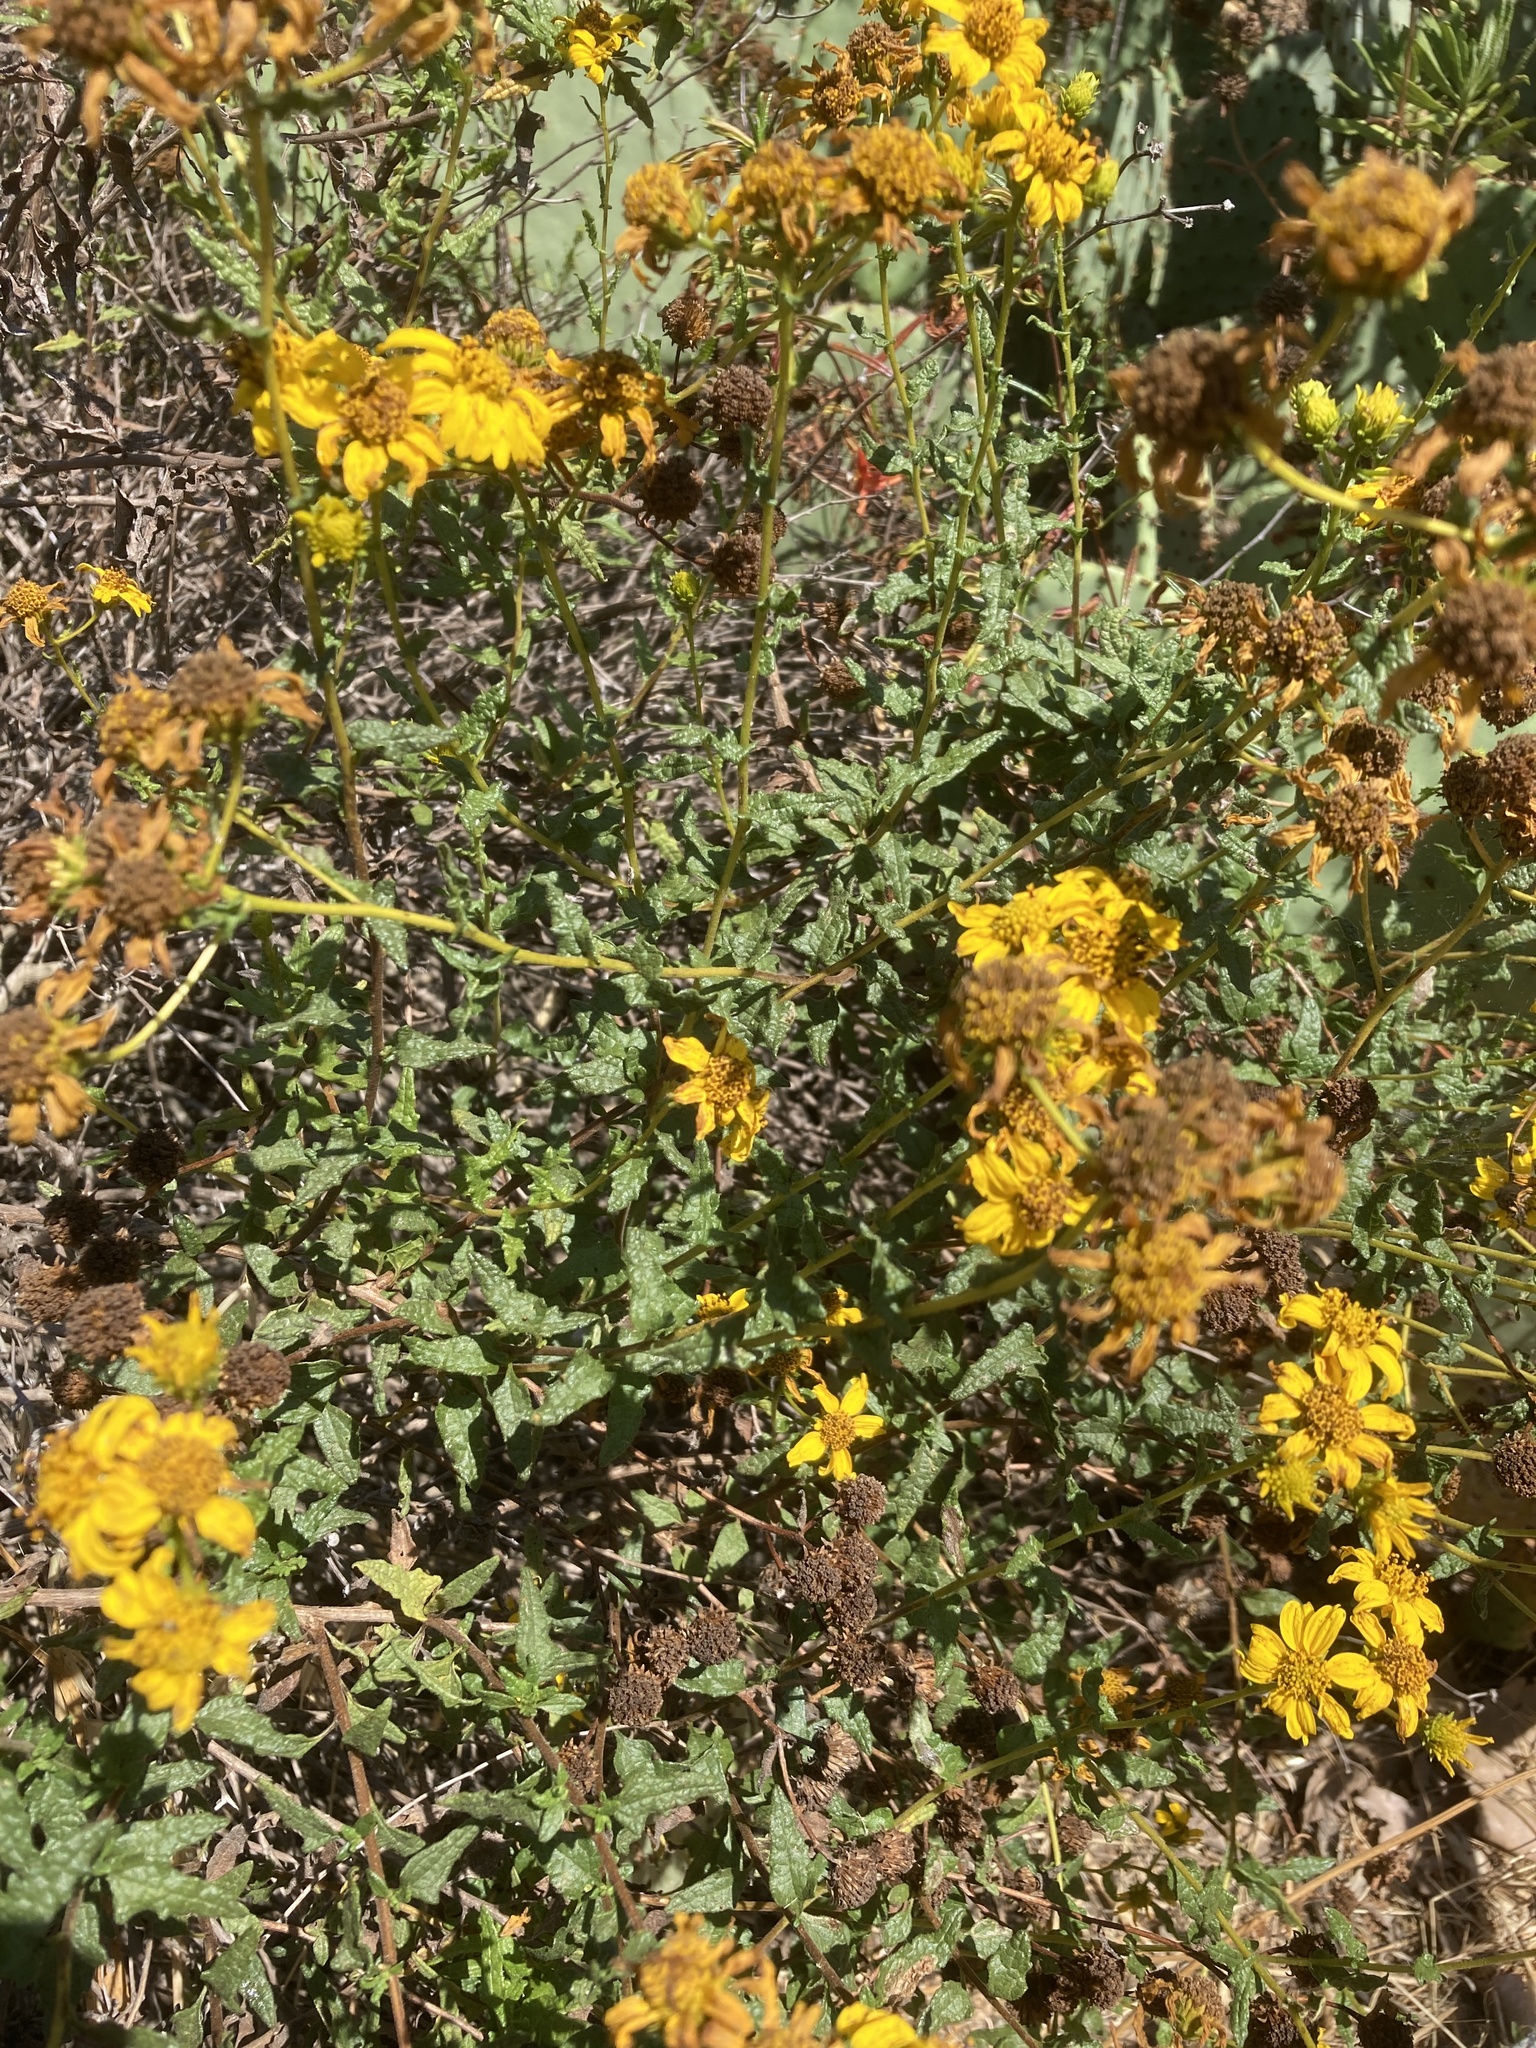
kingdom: Plantae
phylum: Tracheophyta
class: Magnoliopsida
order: Asterales
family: Asteraceae
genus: Bahiopsis
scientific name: Bahiopsis laciniata
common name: San diego county viguiera
